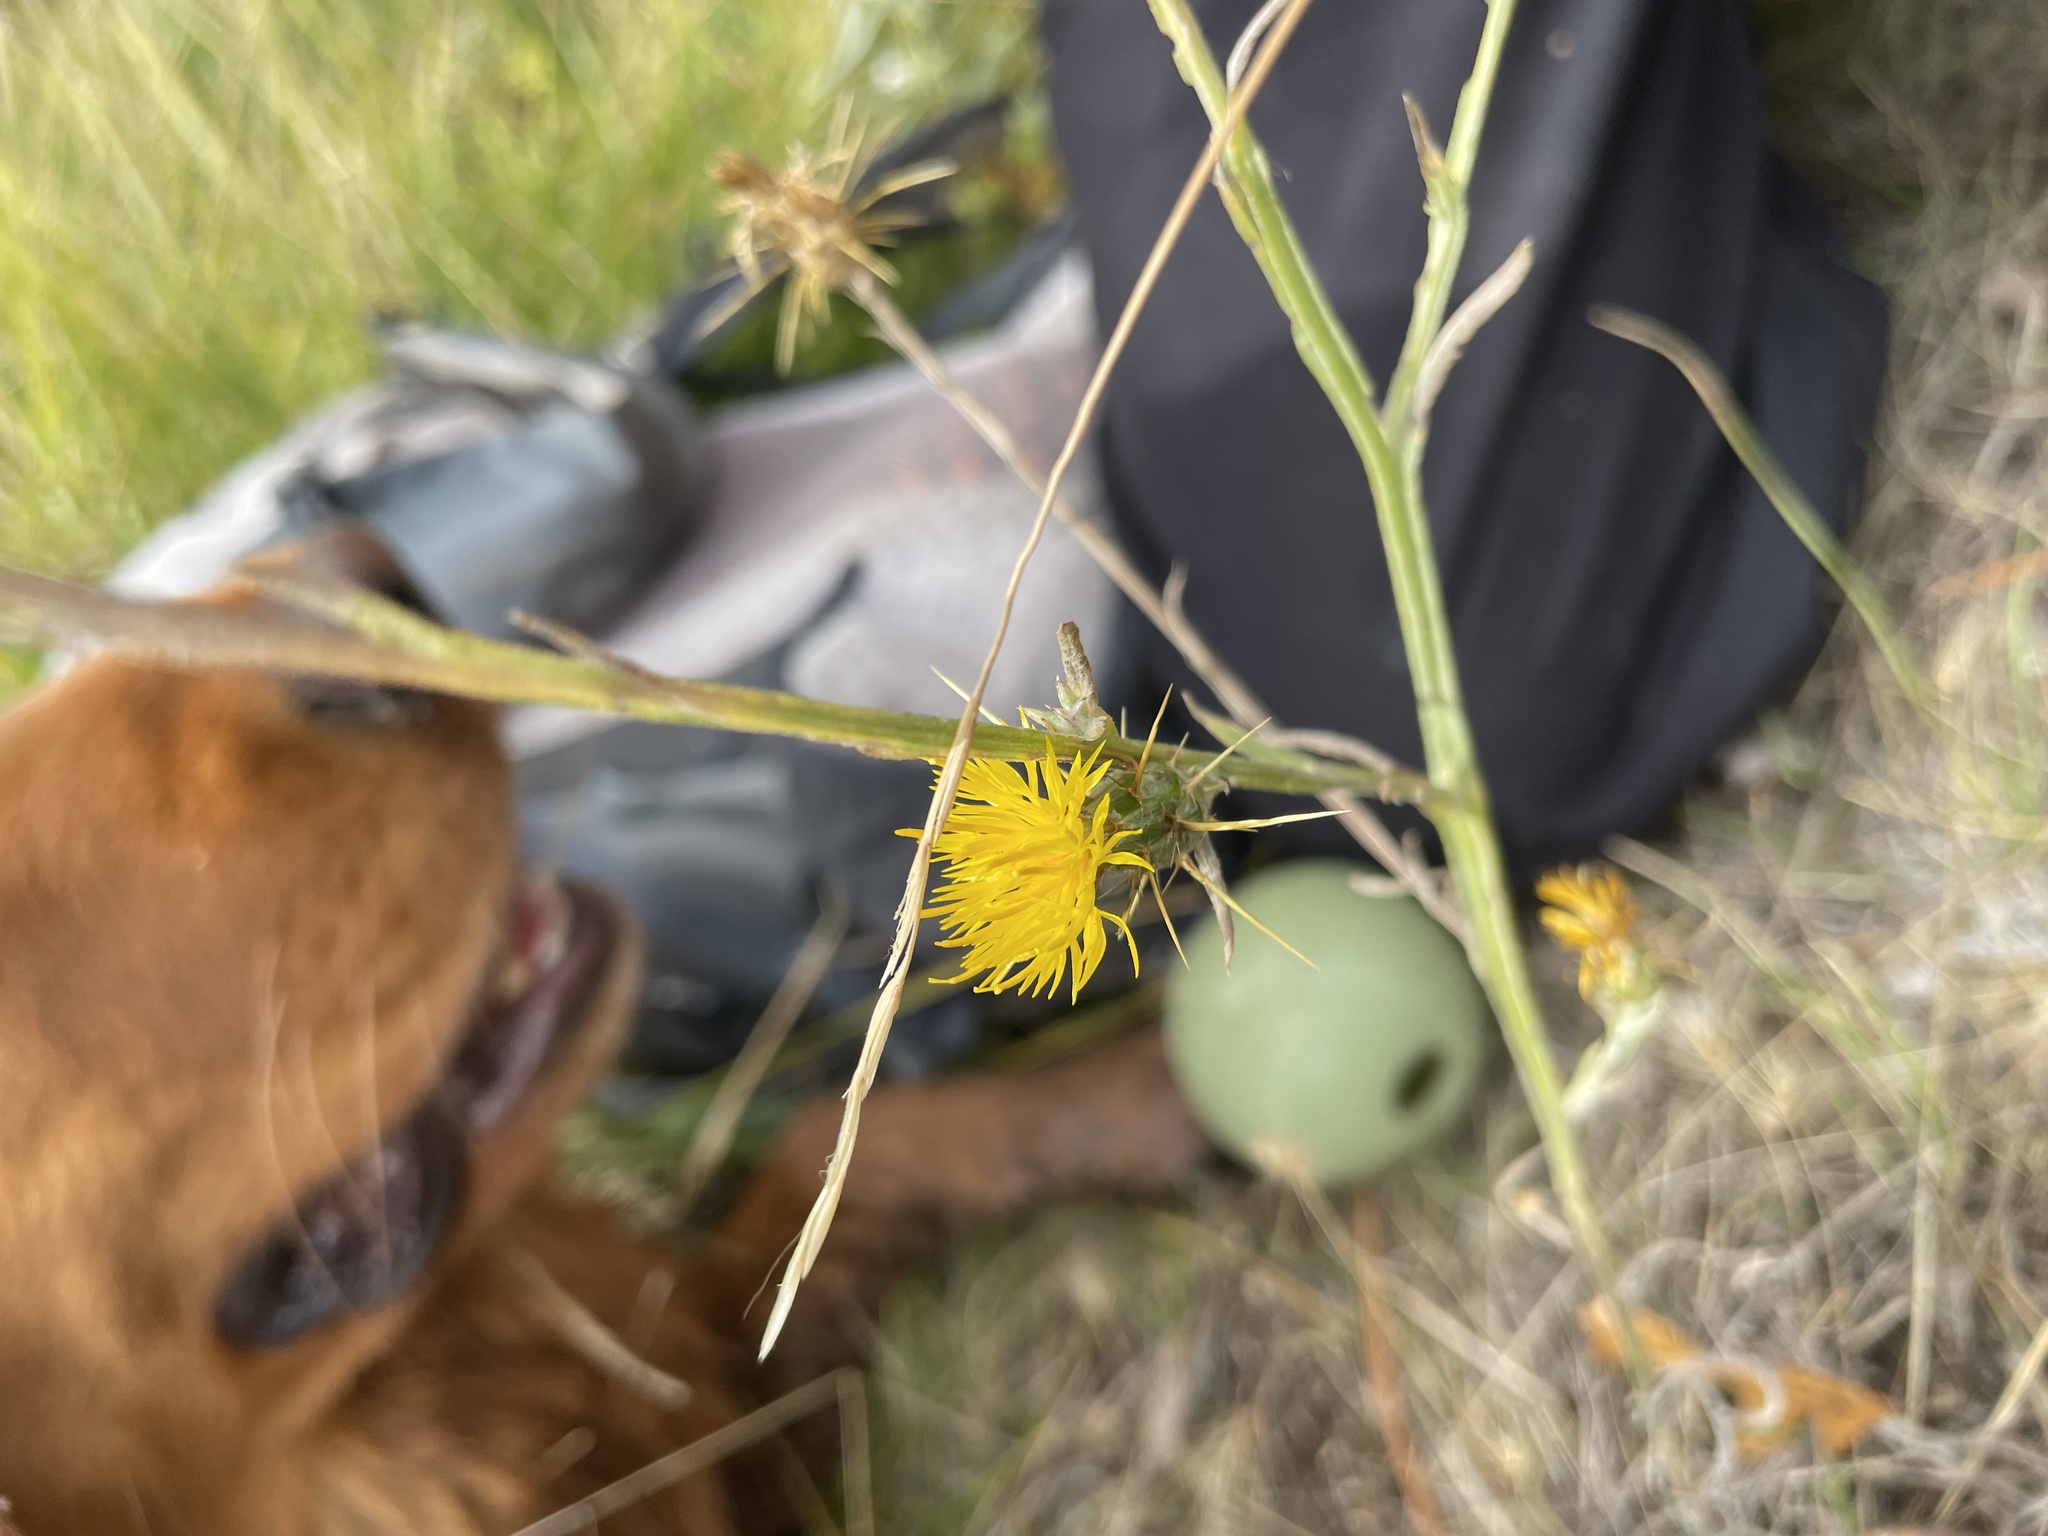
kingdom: Plantae
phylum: Tracheophyta
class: Magnoliopsida
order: Asterales
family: Asteraceae
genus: Centaurea
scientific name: Centaurea solstitialis
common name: Yellow star-thistle
